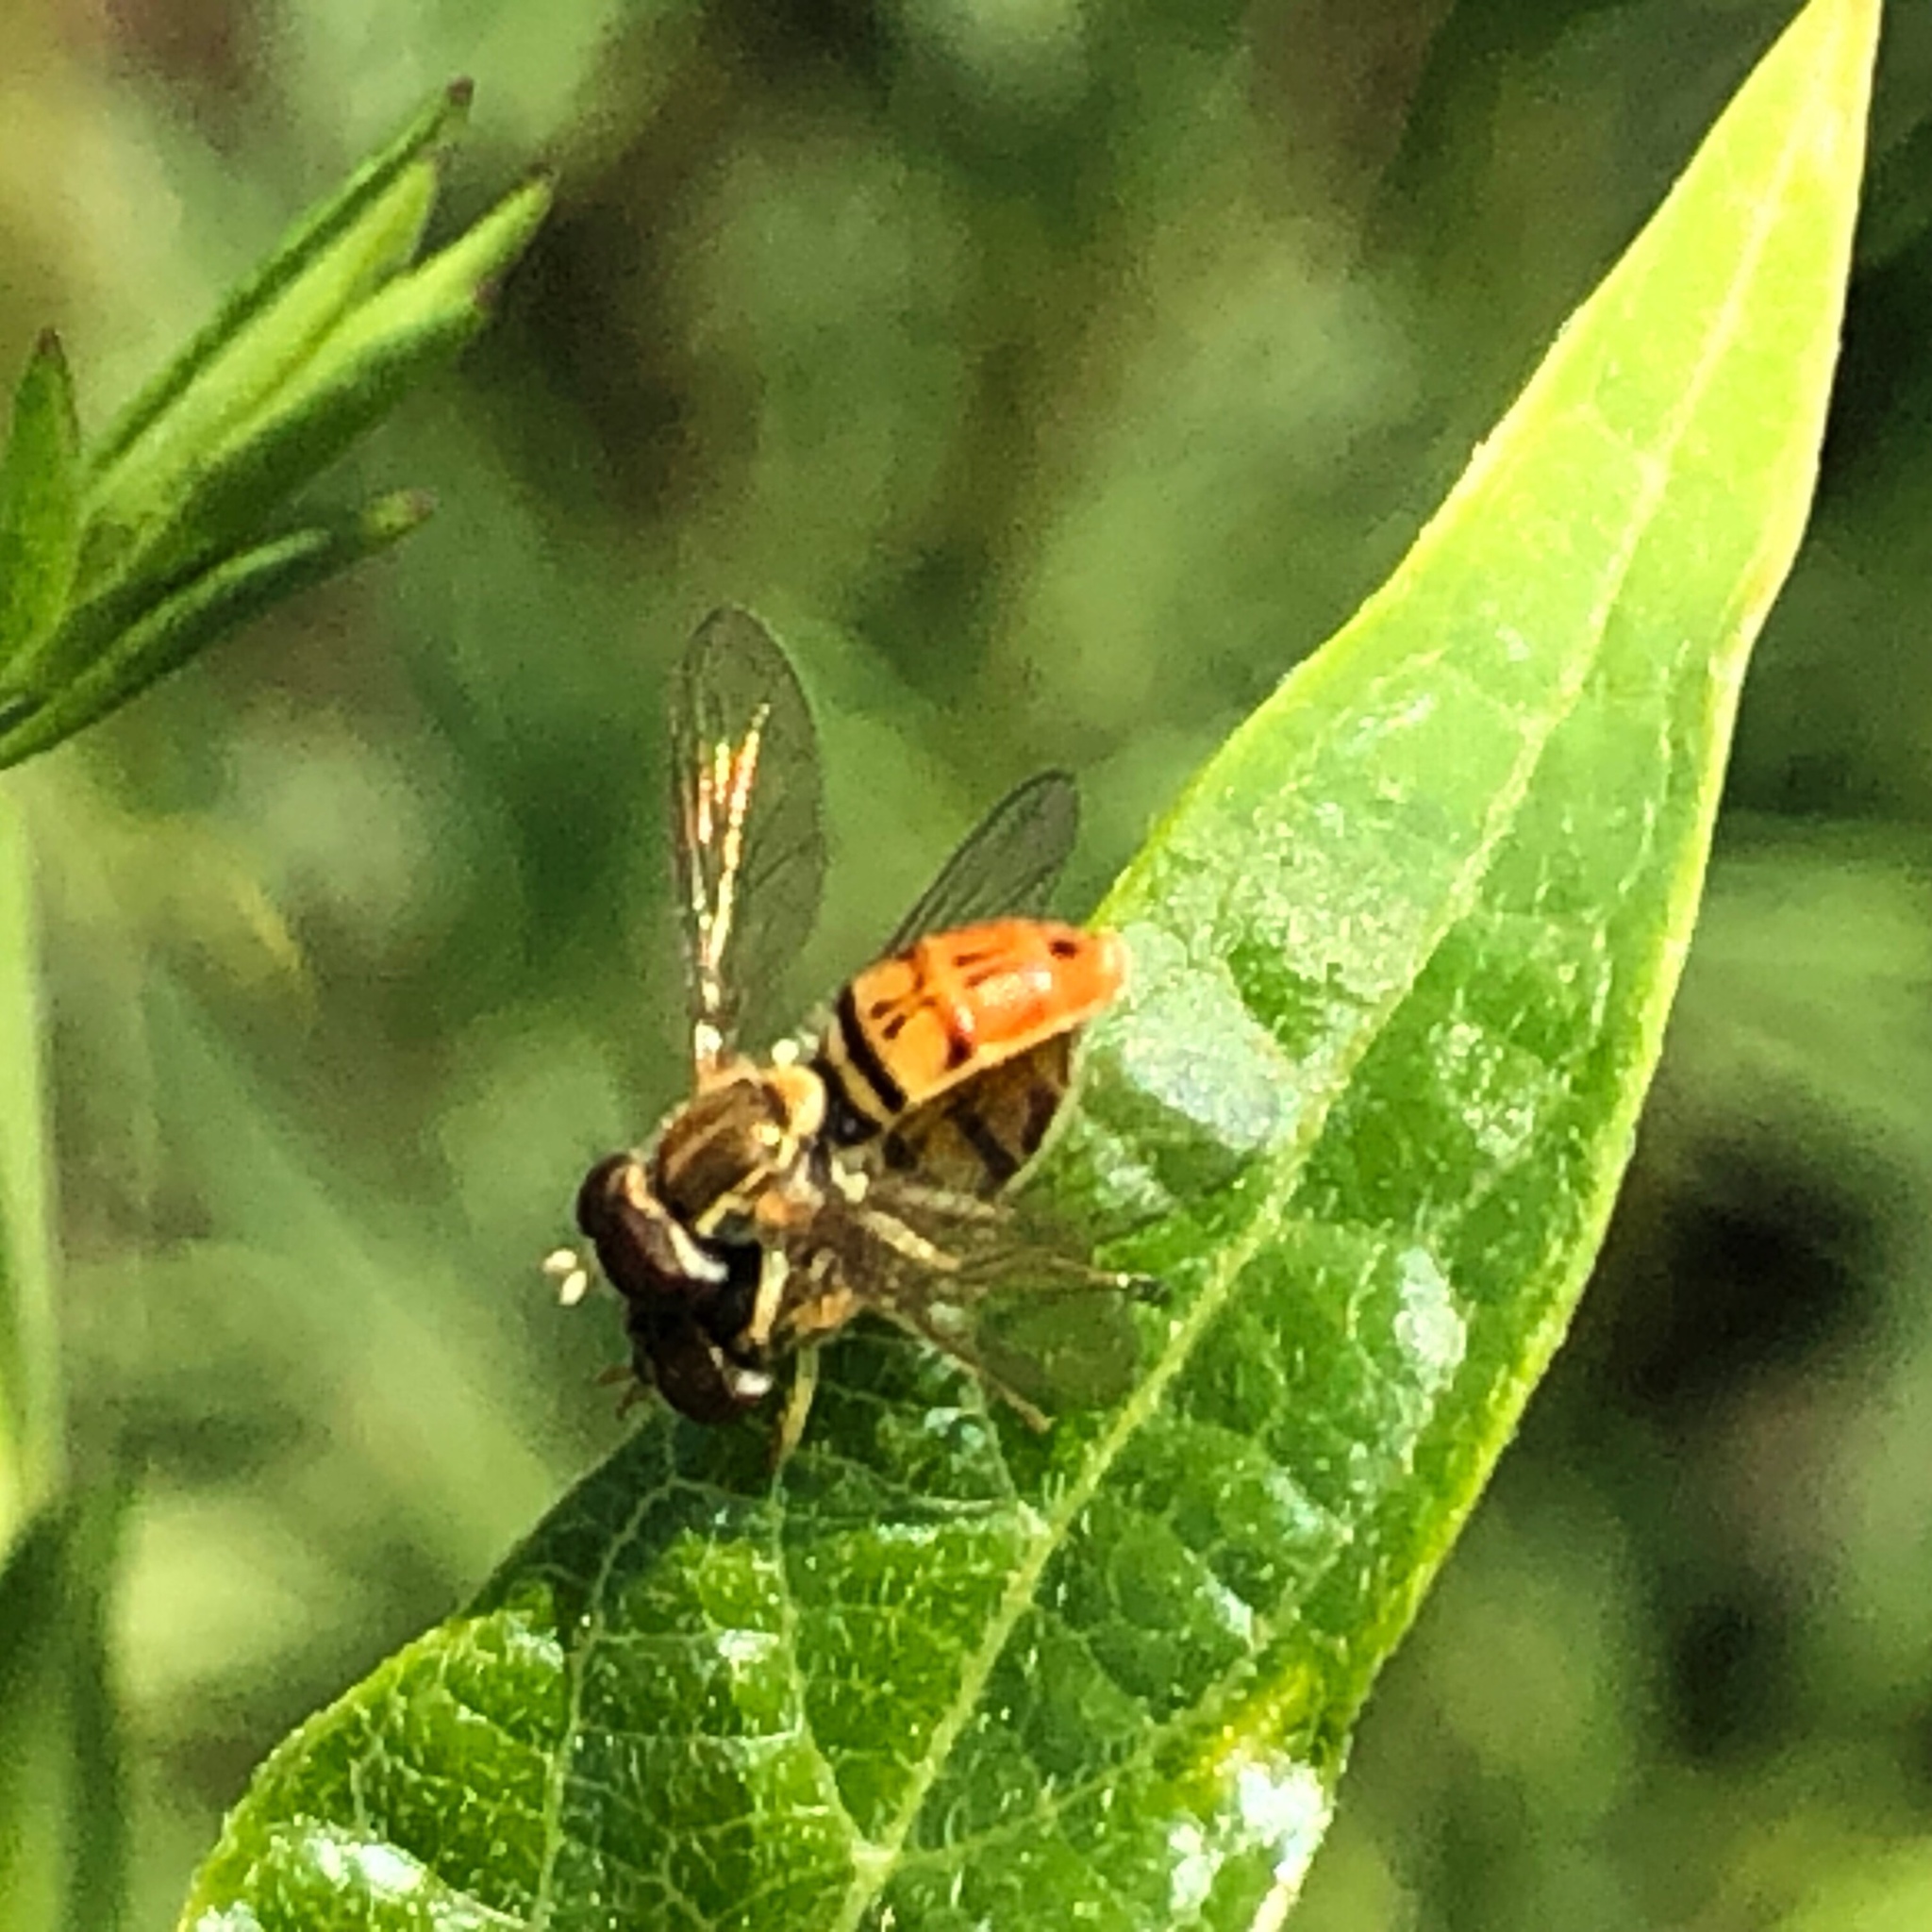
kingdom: Animalia
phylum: Arthropoda
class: Insecta
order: Diptera
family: Syrphidae
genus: Toxomerus
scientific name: Toxomerus marginatus
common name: Syrphid fly
